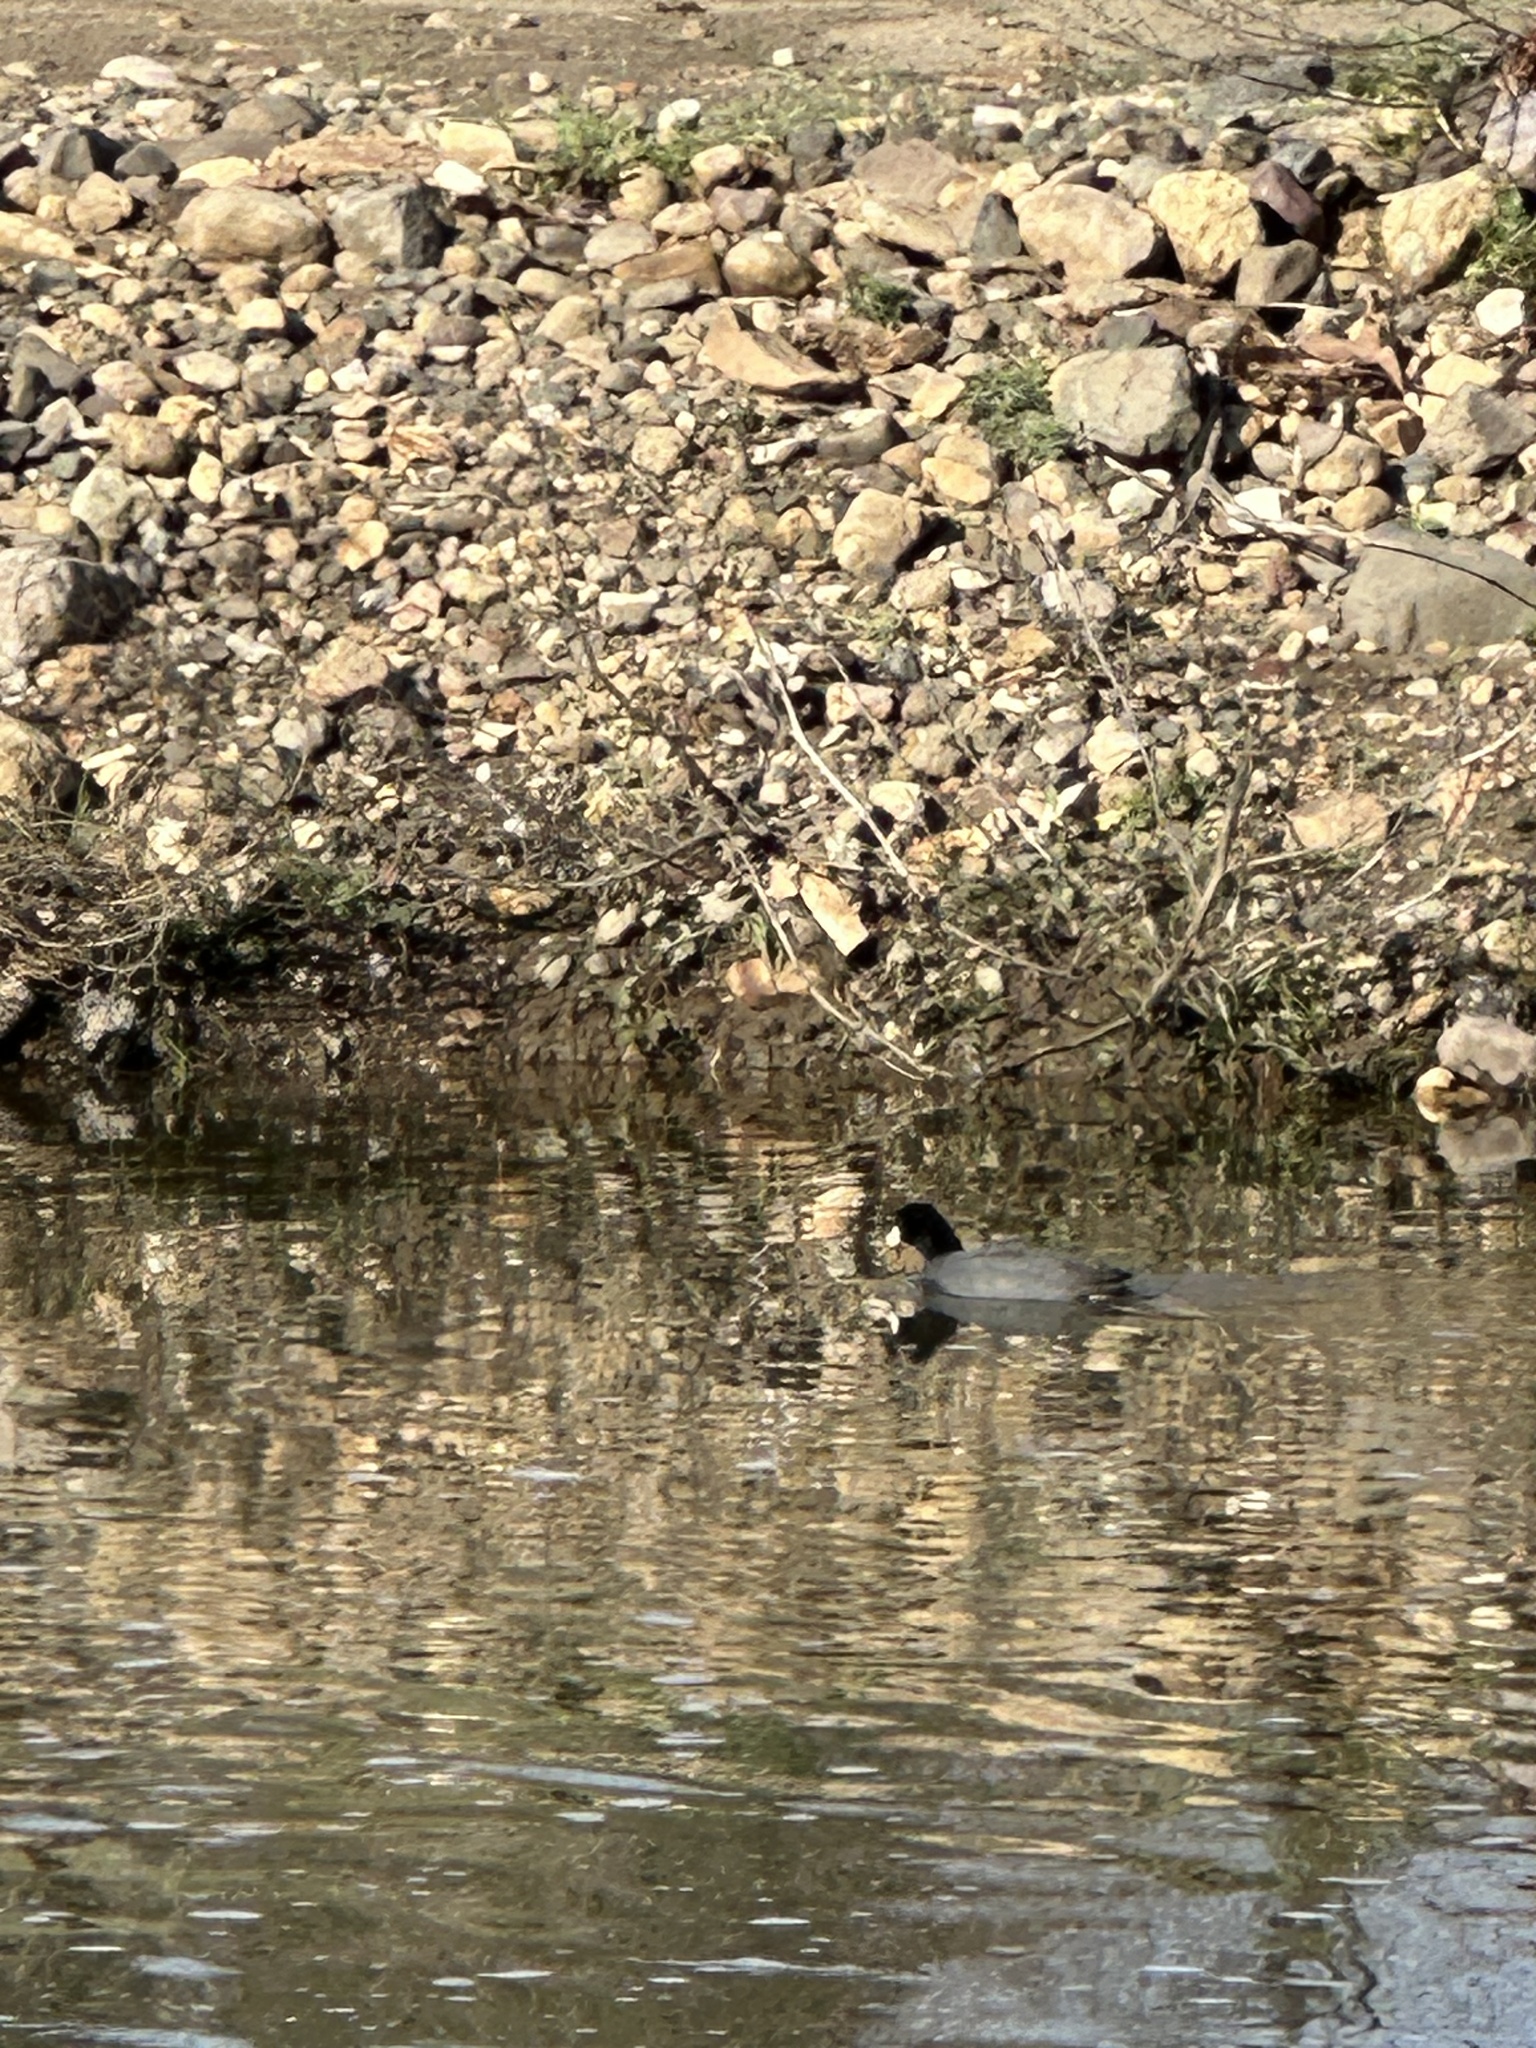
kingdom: Animalia
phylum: Chordata
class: Aves
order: Gruiformes
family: Rallidae
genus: Fulica
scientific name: Fulica americana
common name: American coot
